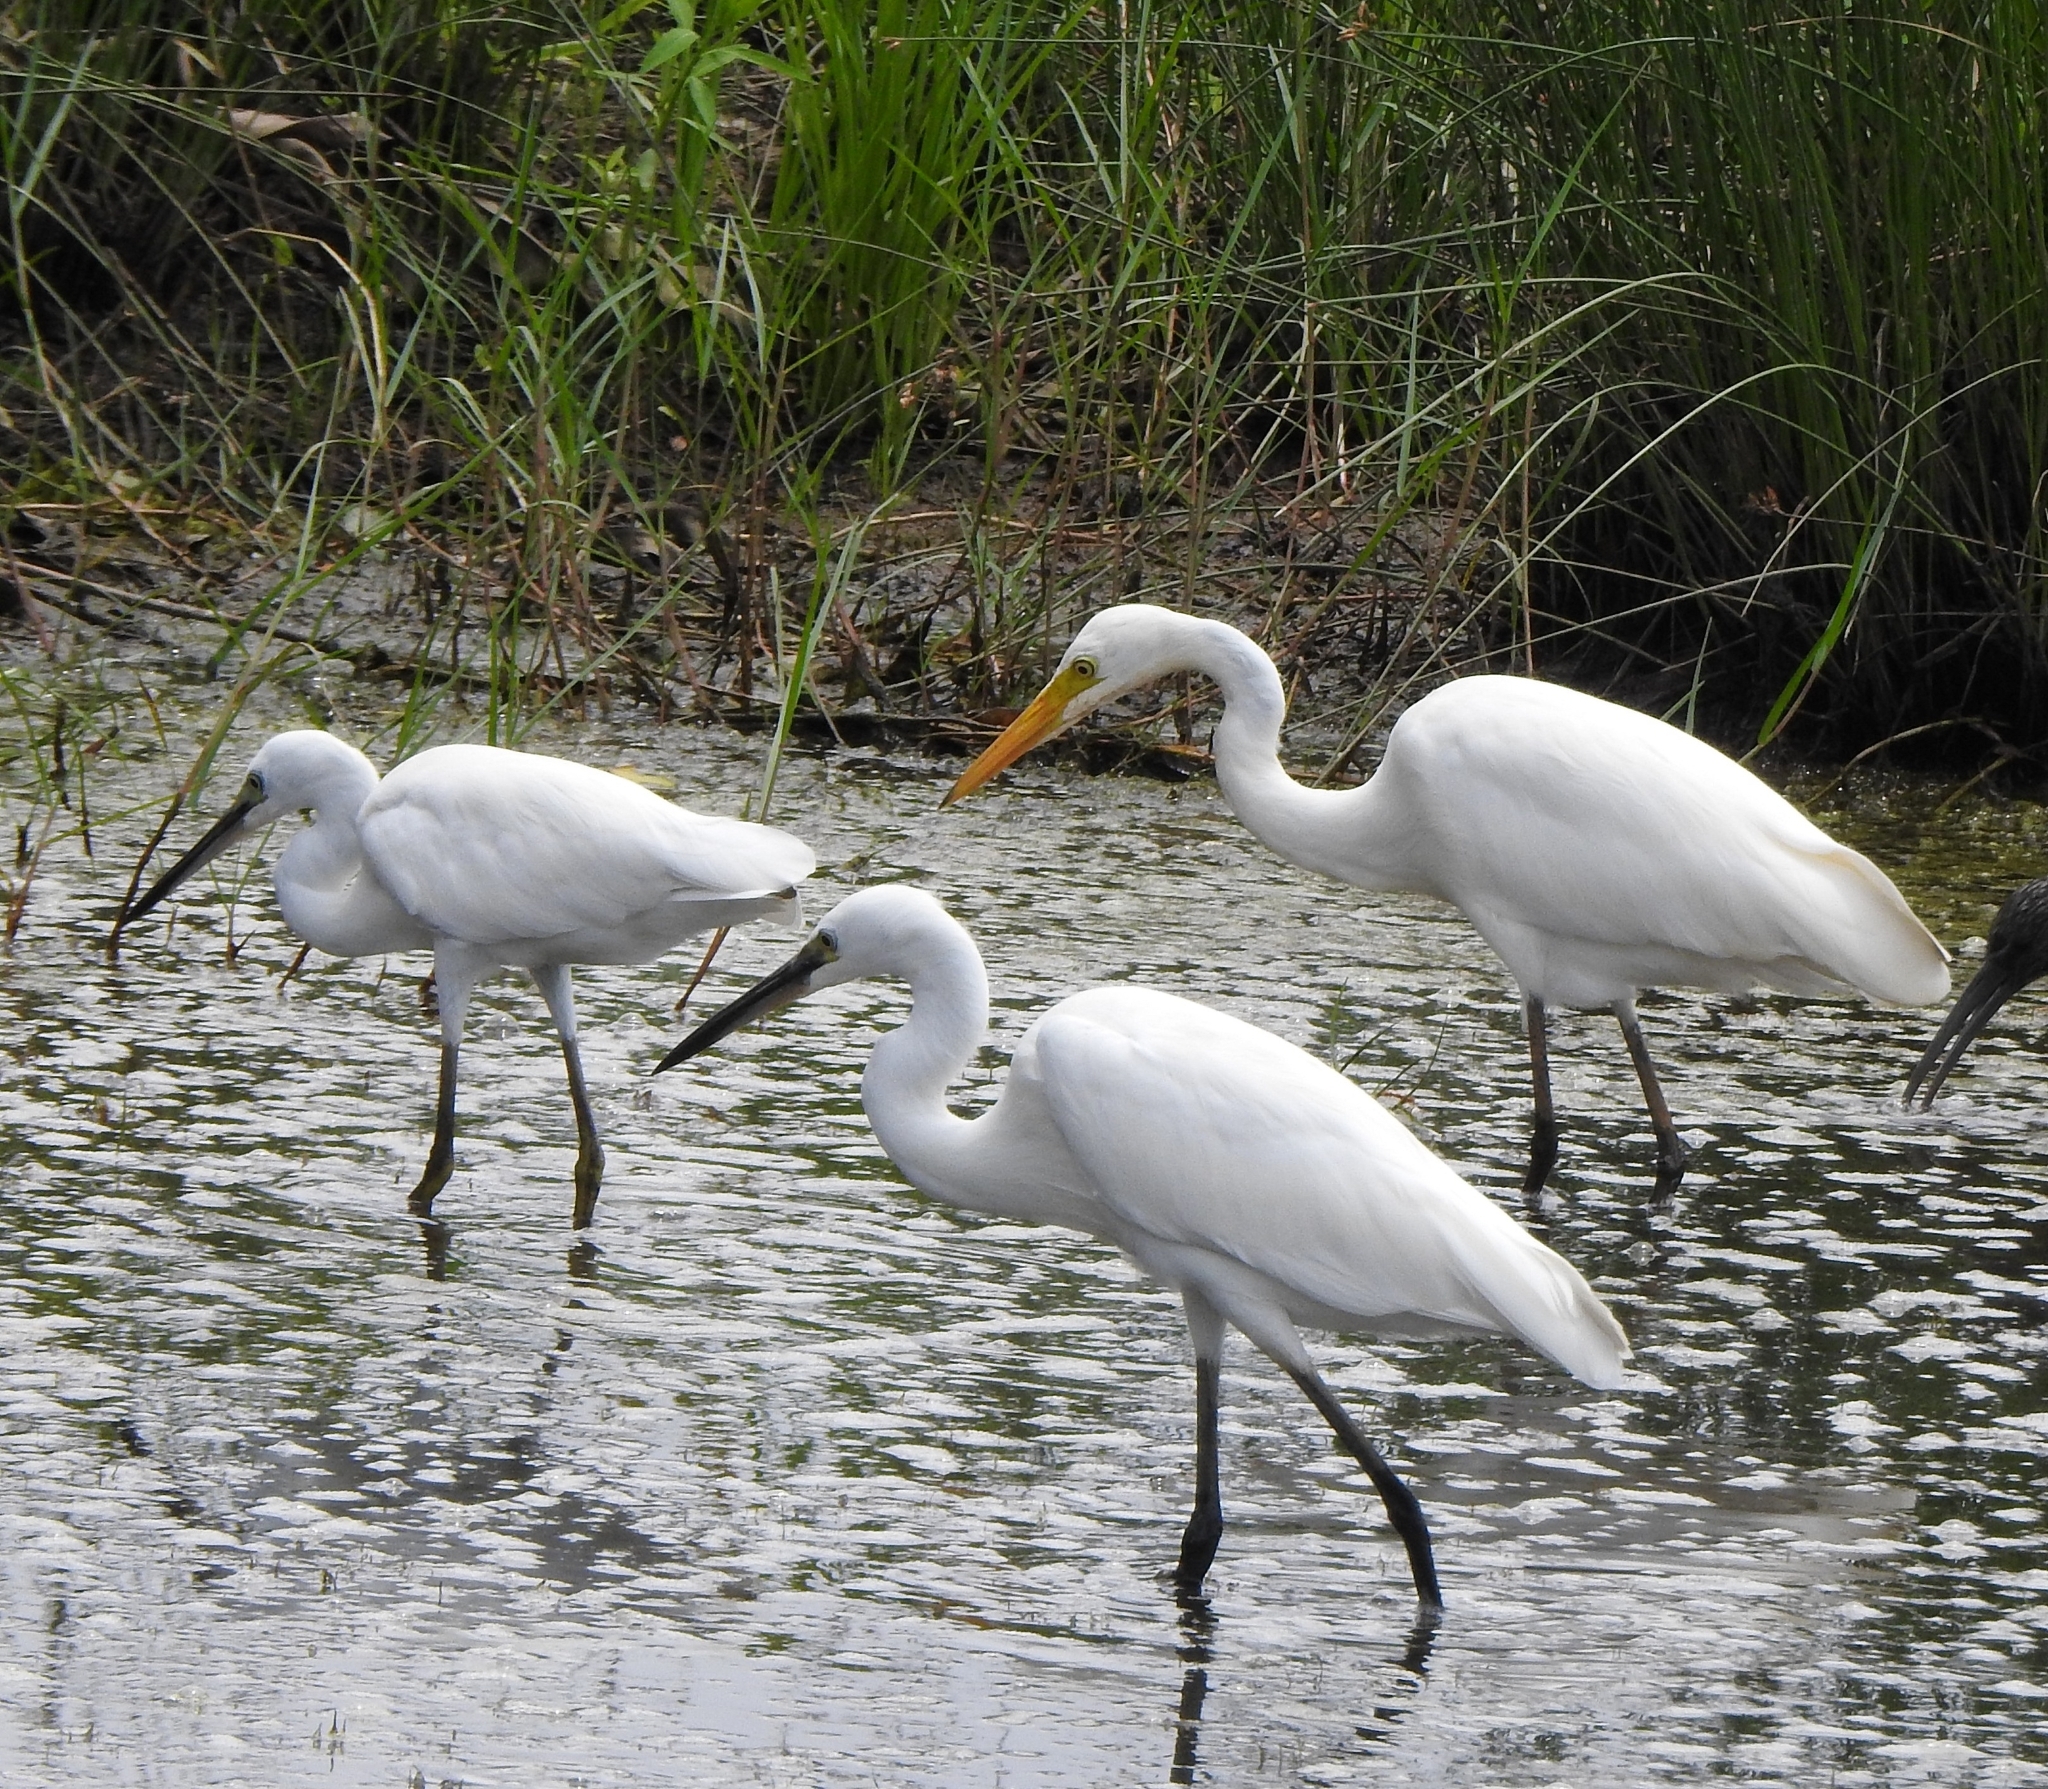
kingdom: Animalia
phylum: Chordata
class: Aves
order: Pelecaniformes
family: Ardeidae
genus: Egretta
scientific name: Egretta intermedia
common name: Intermediate egret
